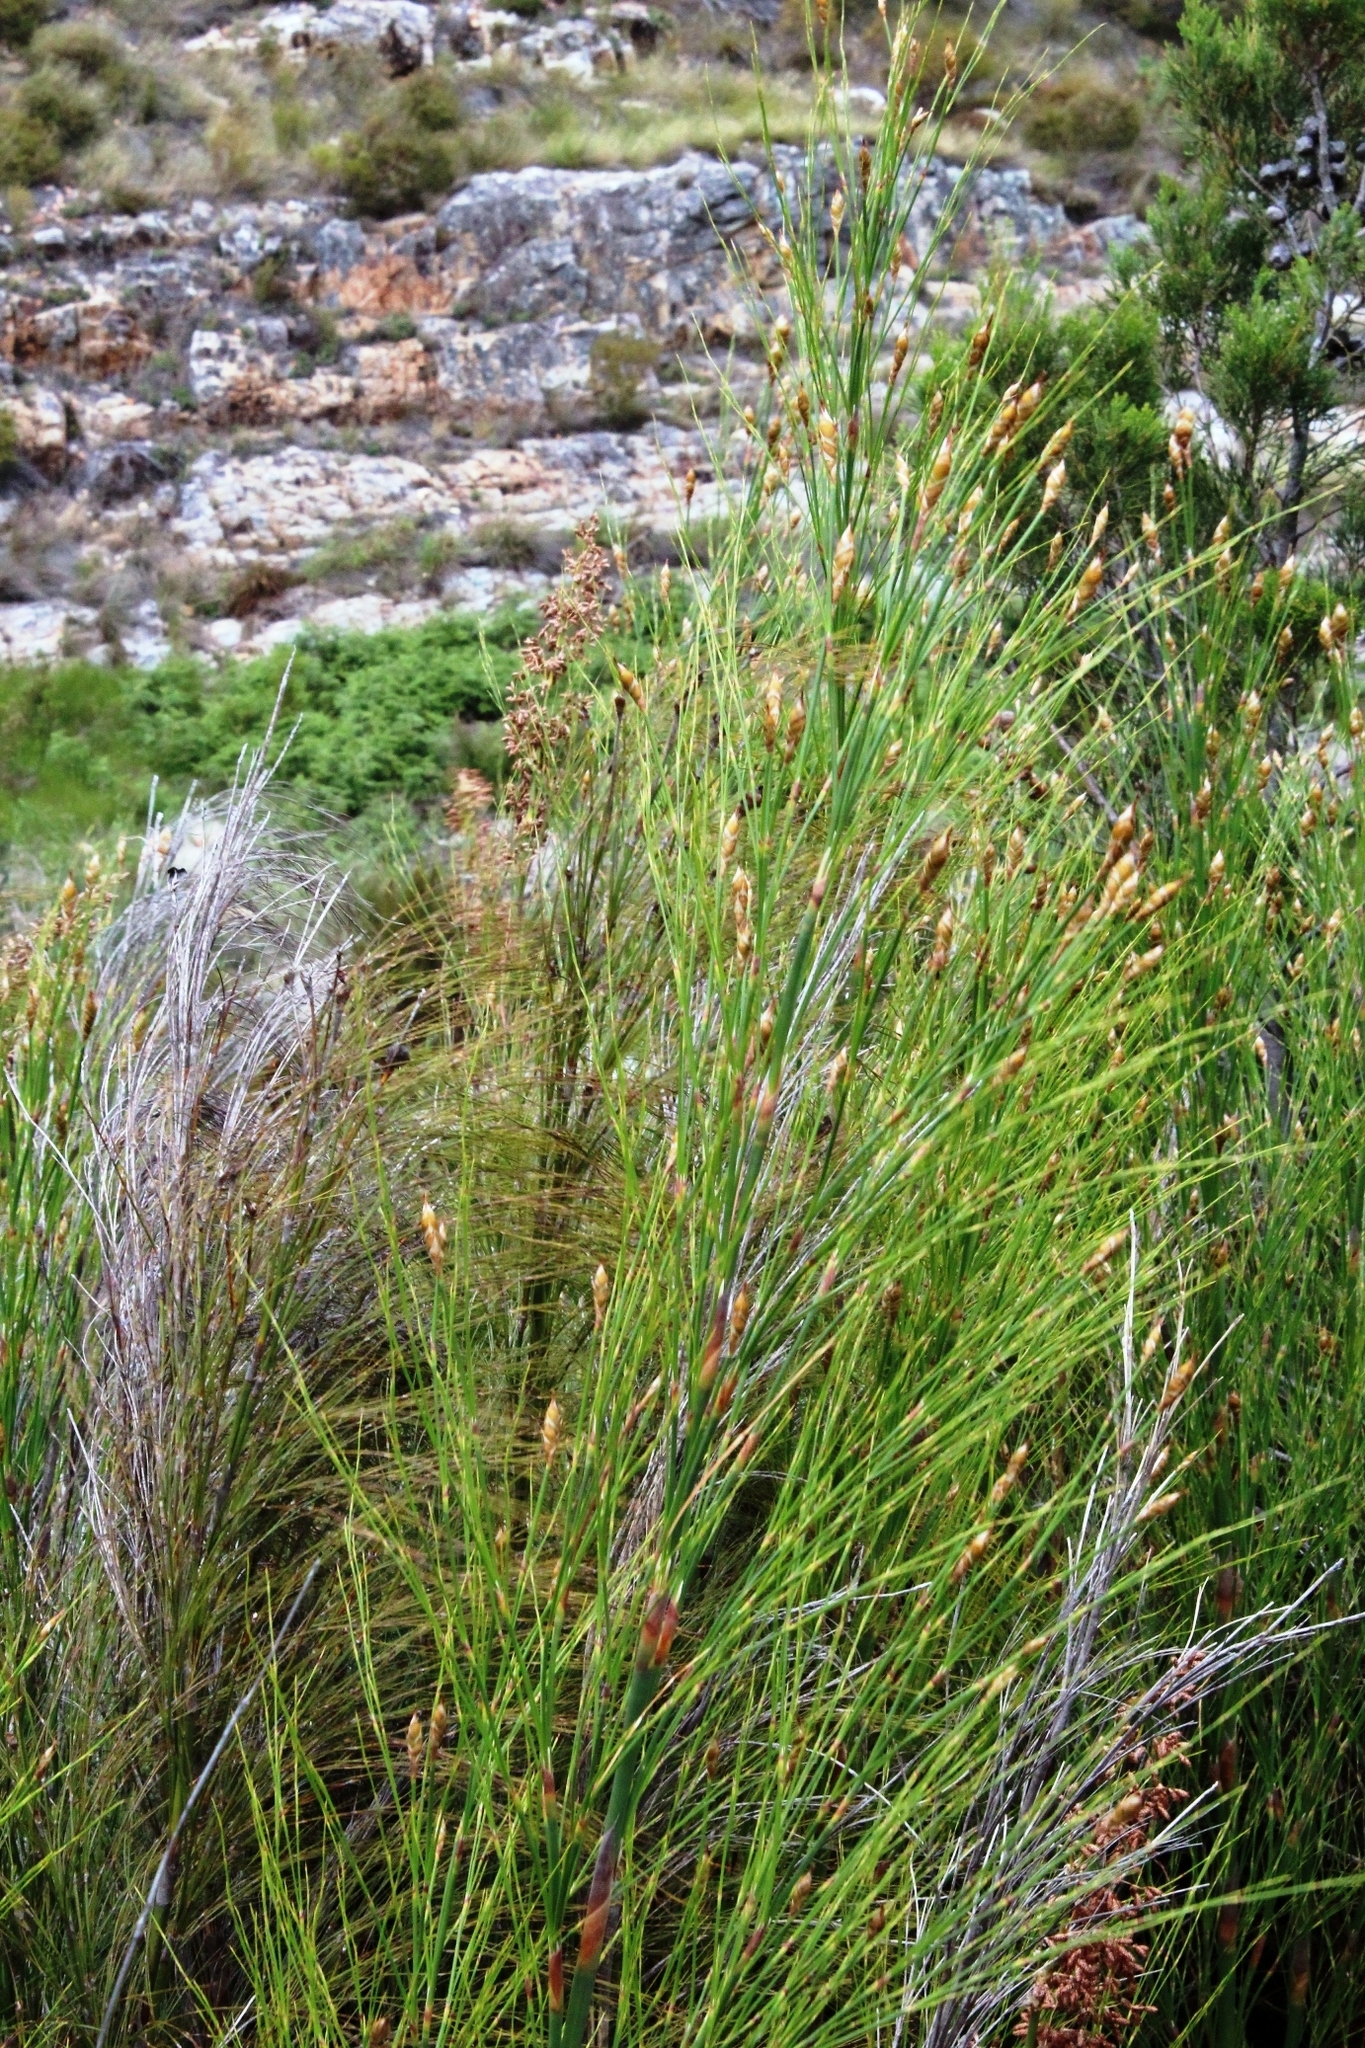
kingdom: Plantae
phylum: Tracheophyta
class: Liliopsida
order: Poales
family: Restionaceae
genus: Cannomois
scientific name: Cannomois virgata
